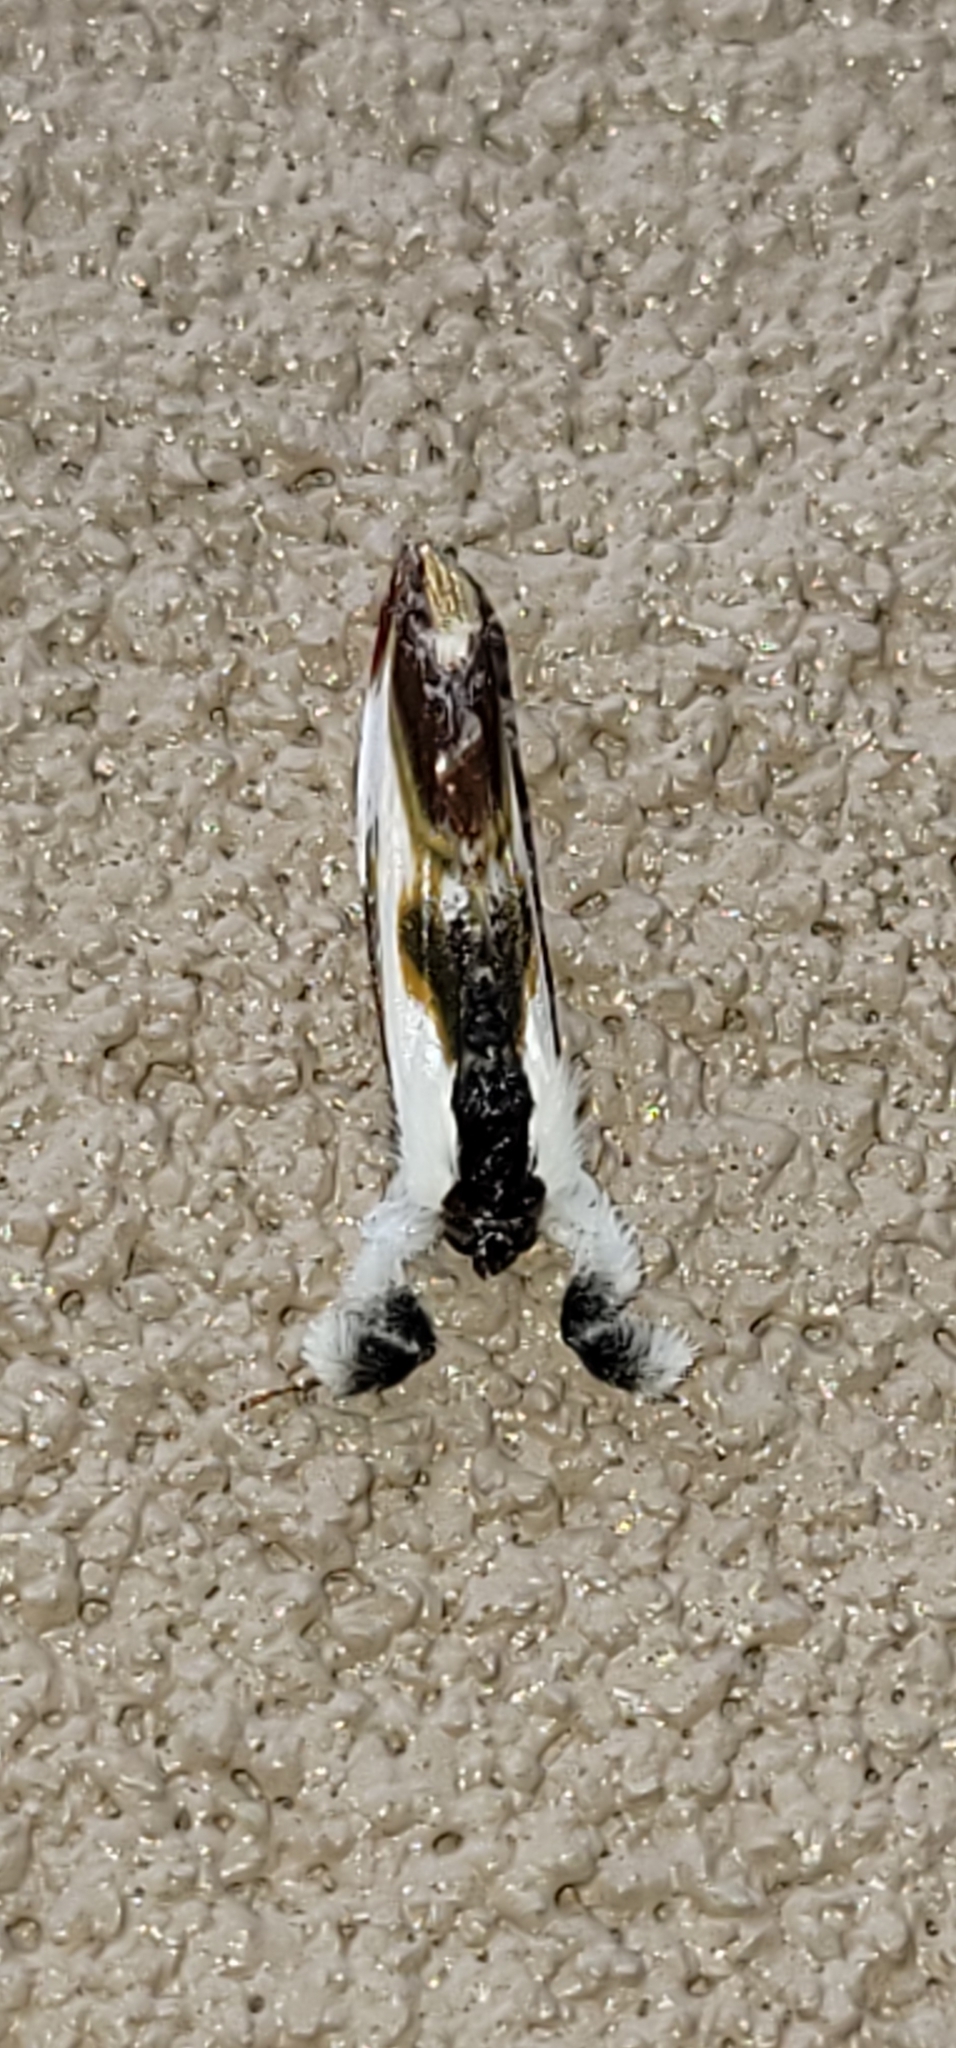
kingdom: Animalia
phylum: Arthropoda
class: Insecta
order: Lepidoptera
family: Noctuidae
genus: Eudryas
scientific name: Eudryas grata
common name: Beautiful wood-nymph
